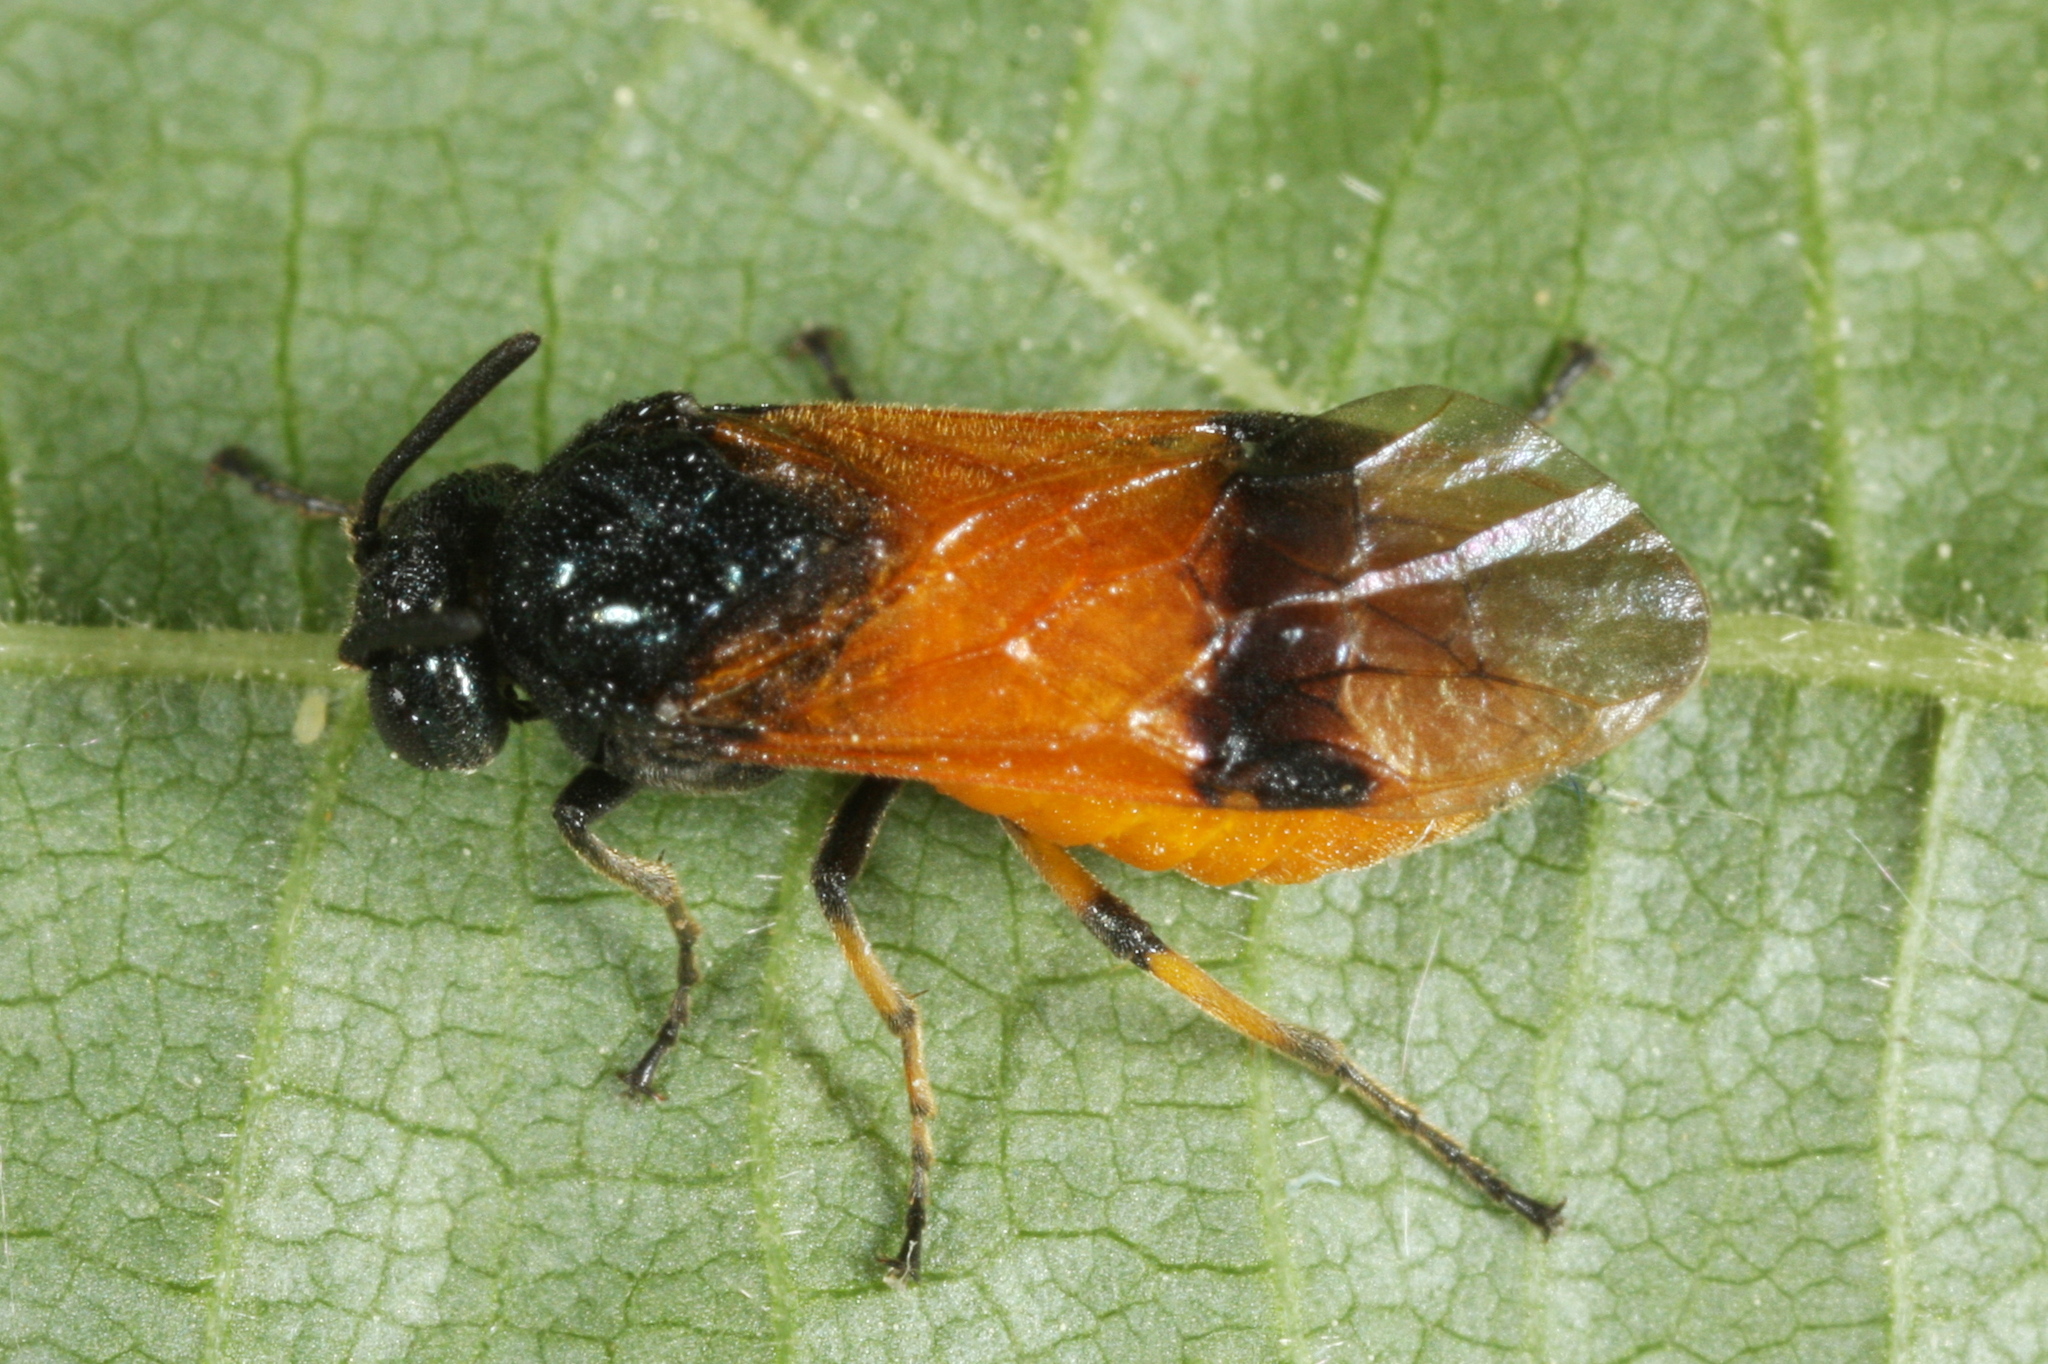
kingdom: Animalia
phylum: Arthropoda
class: Insecta
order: Hymenoptera
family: Argidae
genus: Arge
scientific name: Arge cyanocrocea
